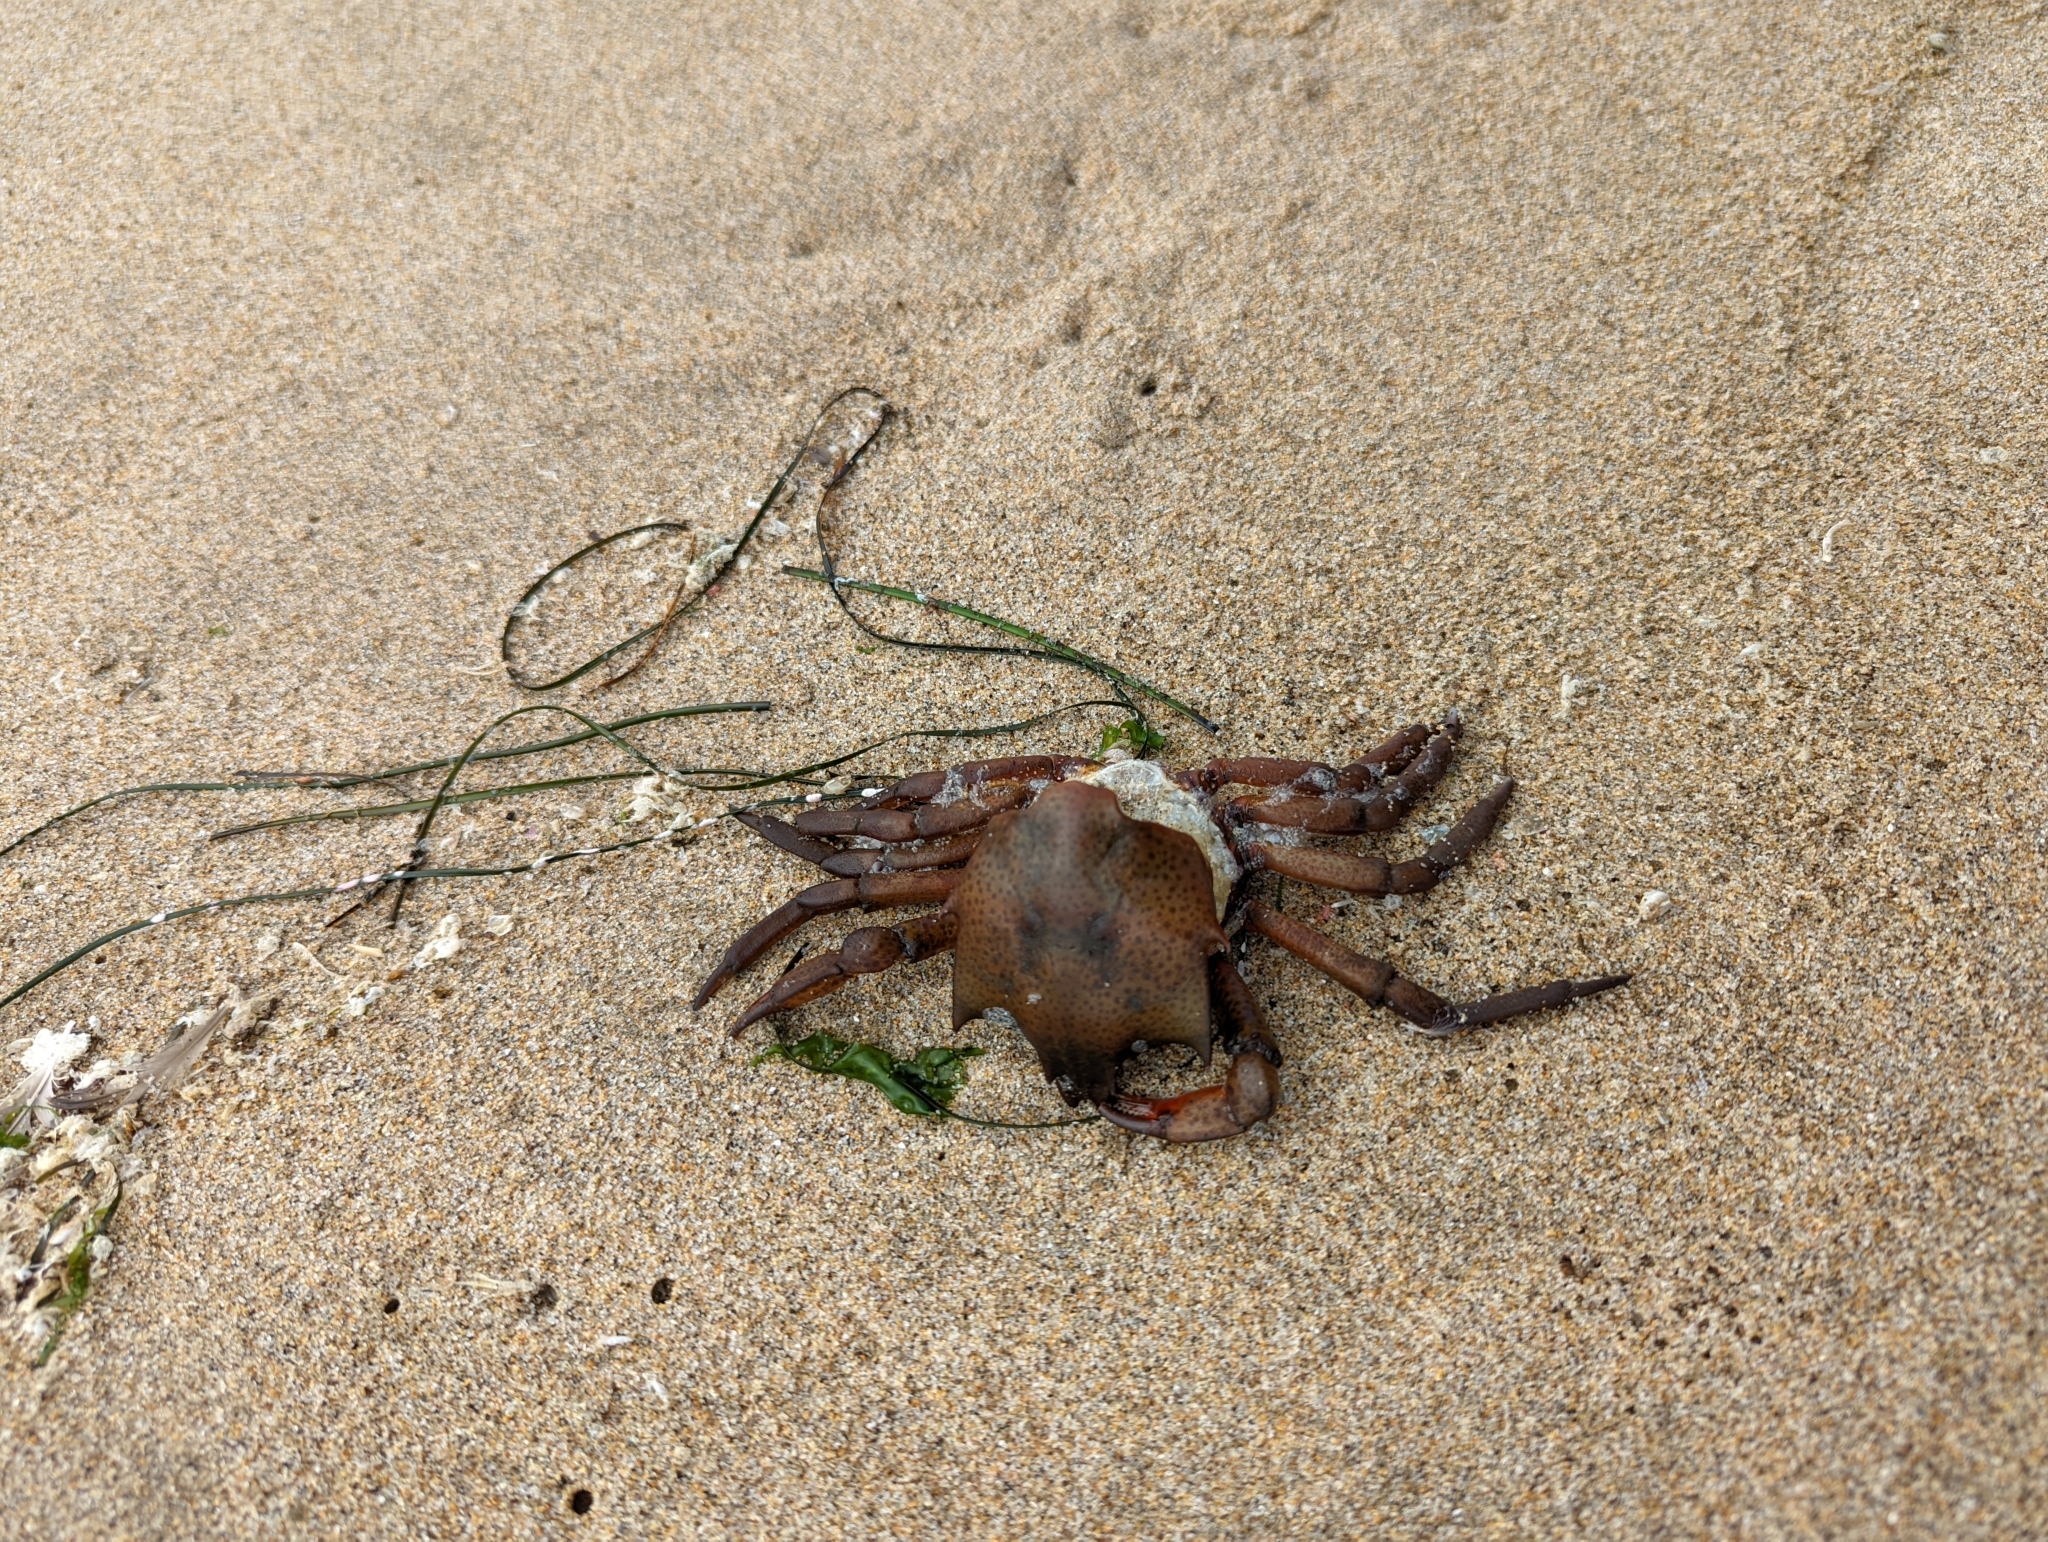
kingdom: Animalia
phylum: Arthropoda
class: Malacostraca
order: Decapoda
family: Epialtidae
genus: Pugettia
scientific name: Pugettia producta
